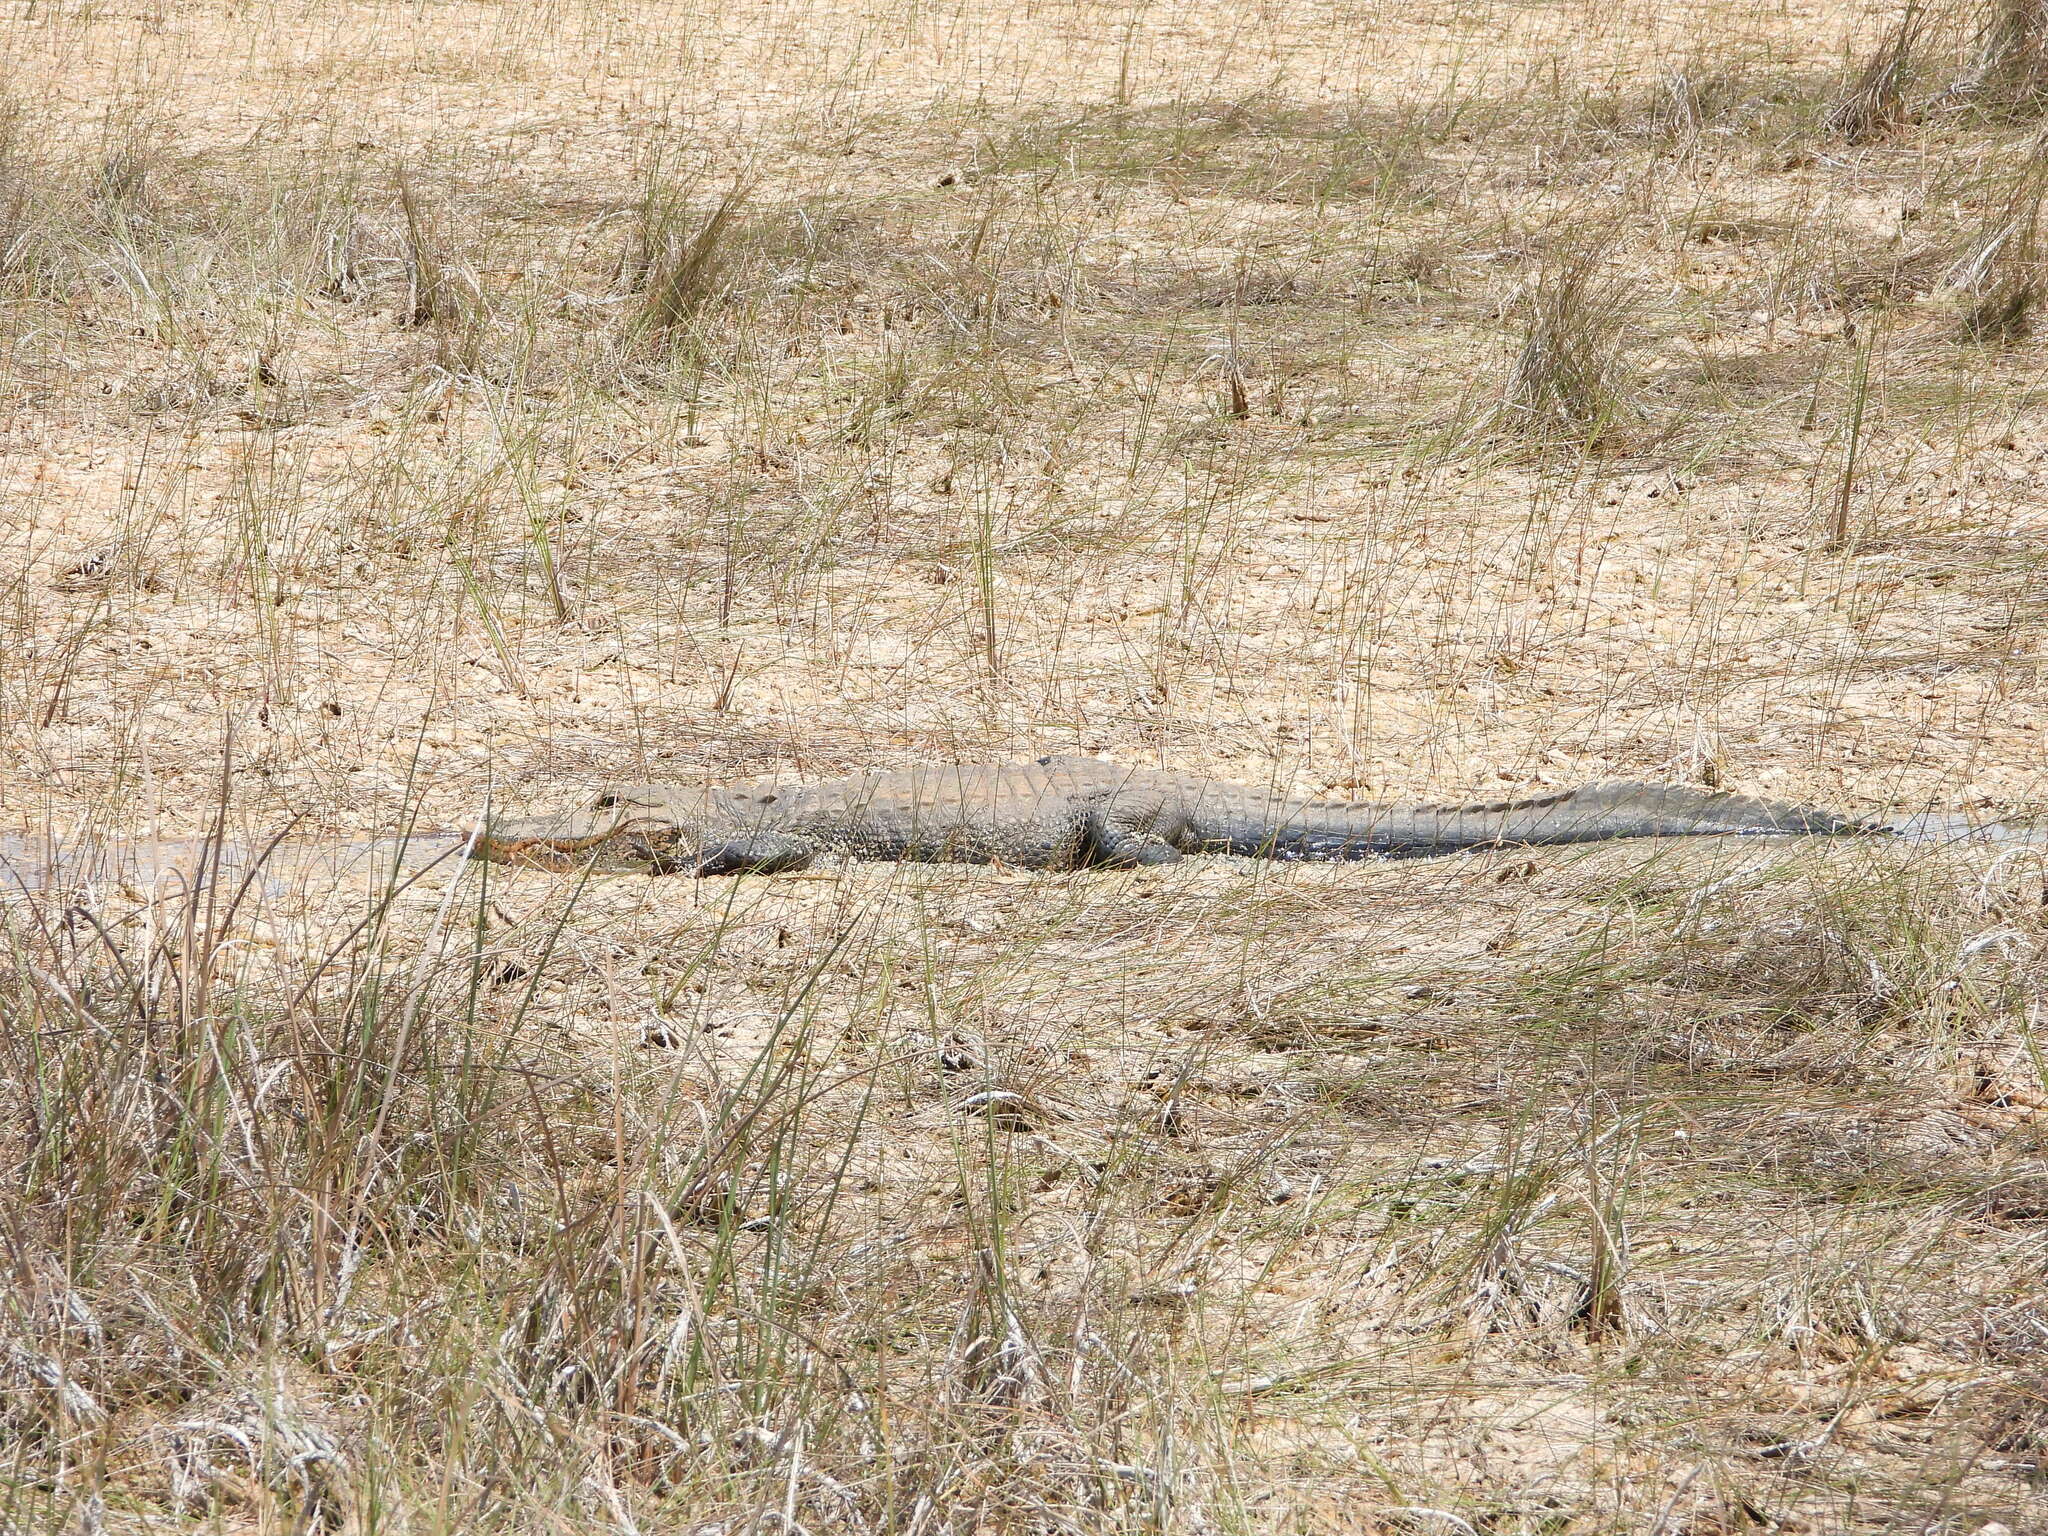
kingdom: Animalia
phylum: Chordata
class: Crocodylia
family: Alligatoridae
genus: Alligator
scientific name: Alligator mississippiensis
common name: American alligator
